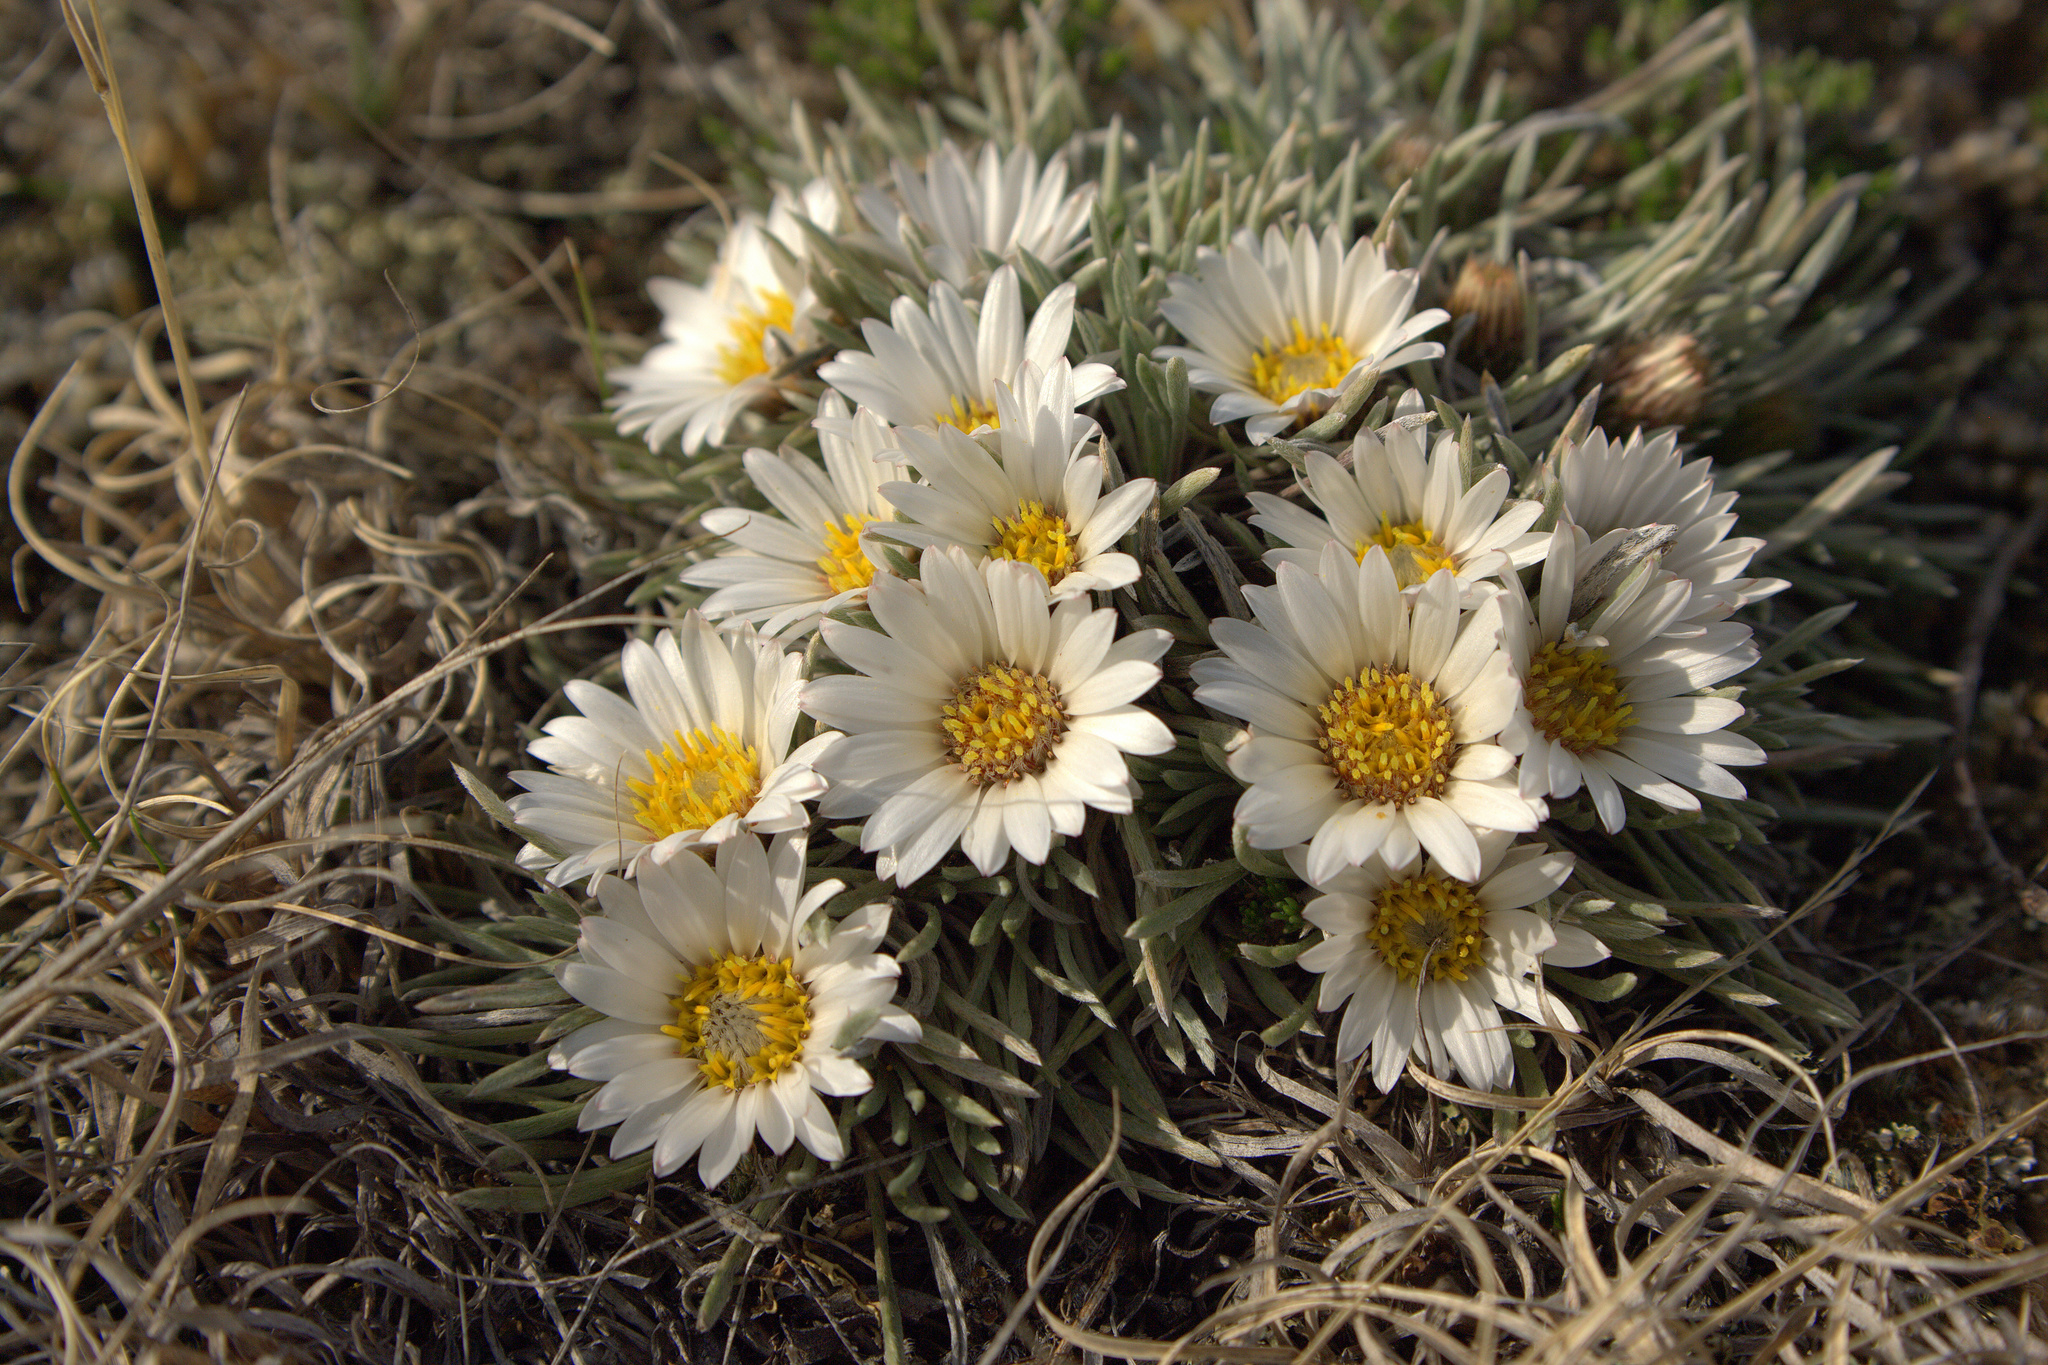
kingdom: Plantae
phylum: Tracheophyta
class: Magnoliopsida
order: Asterales
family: Asteraceae
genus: Townsendia
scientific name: Townsendia hookeri
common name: Hooker's townsend daisy
